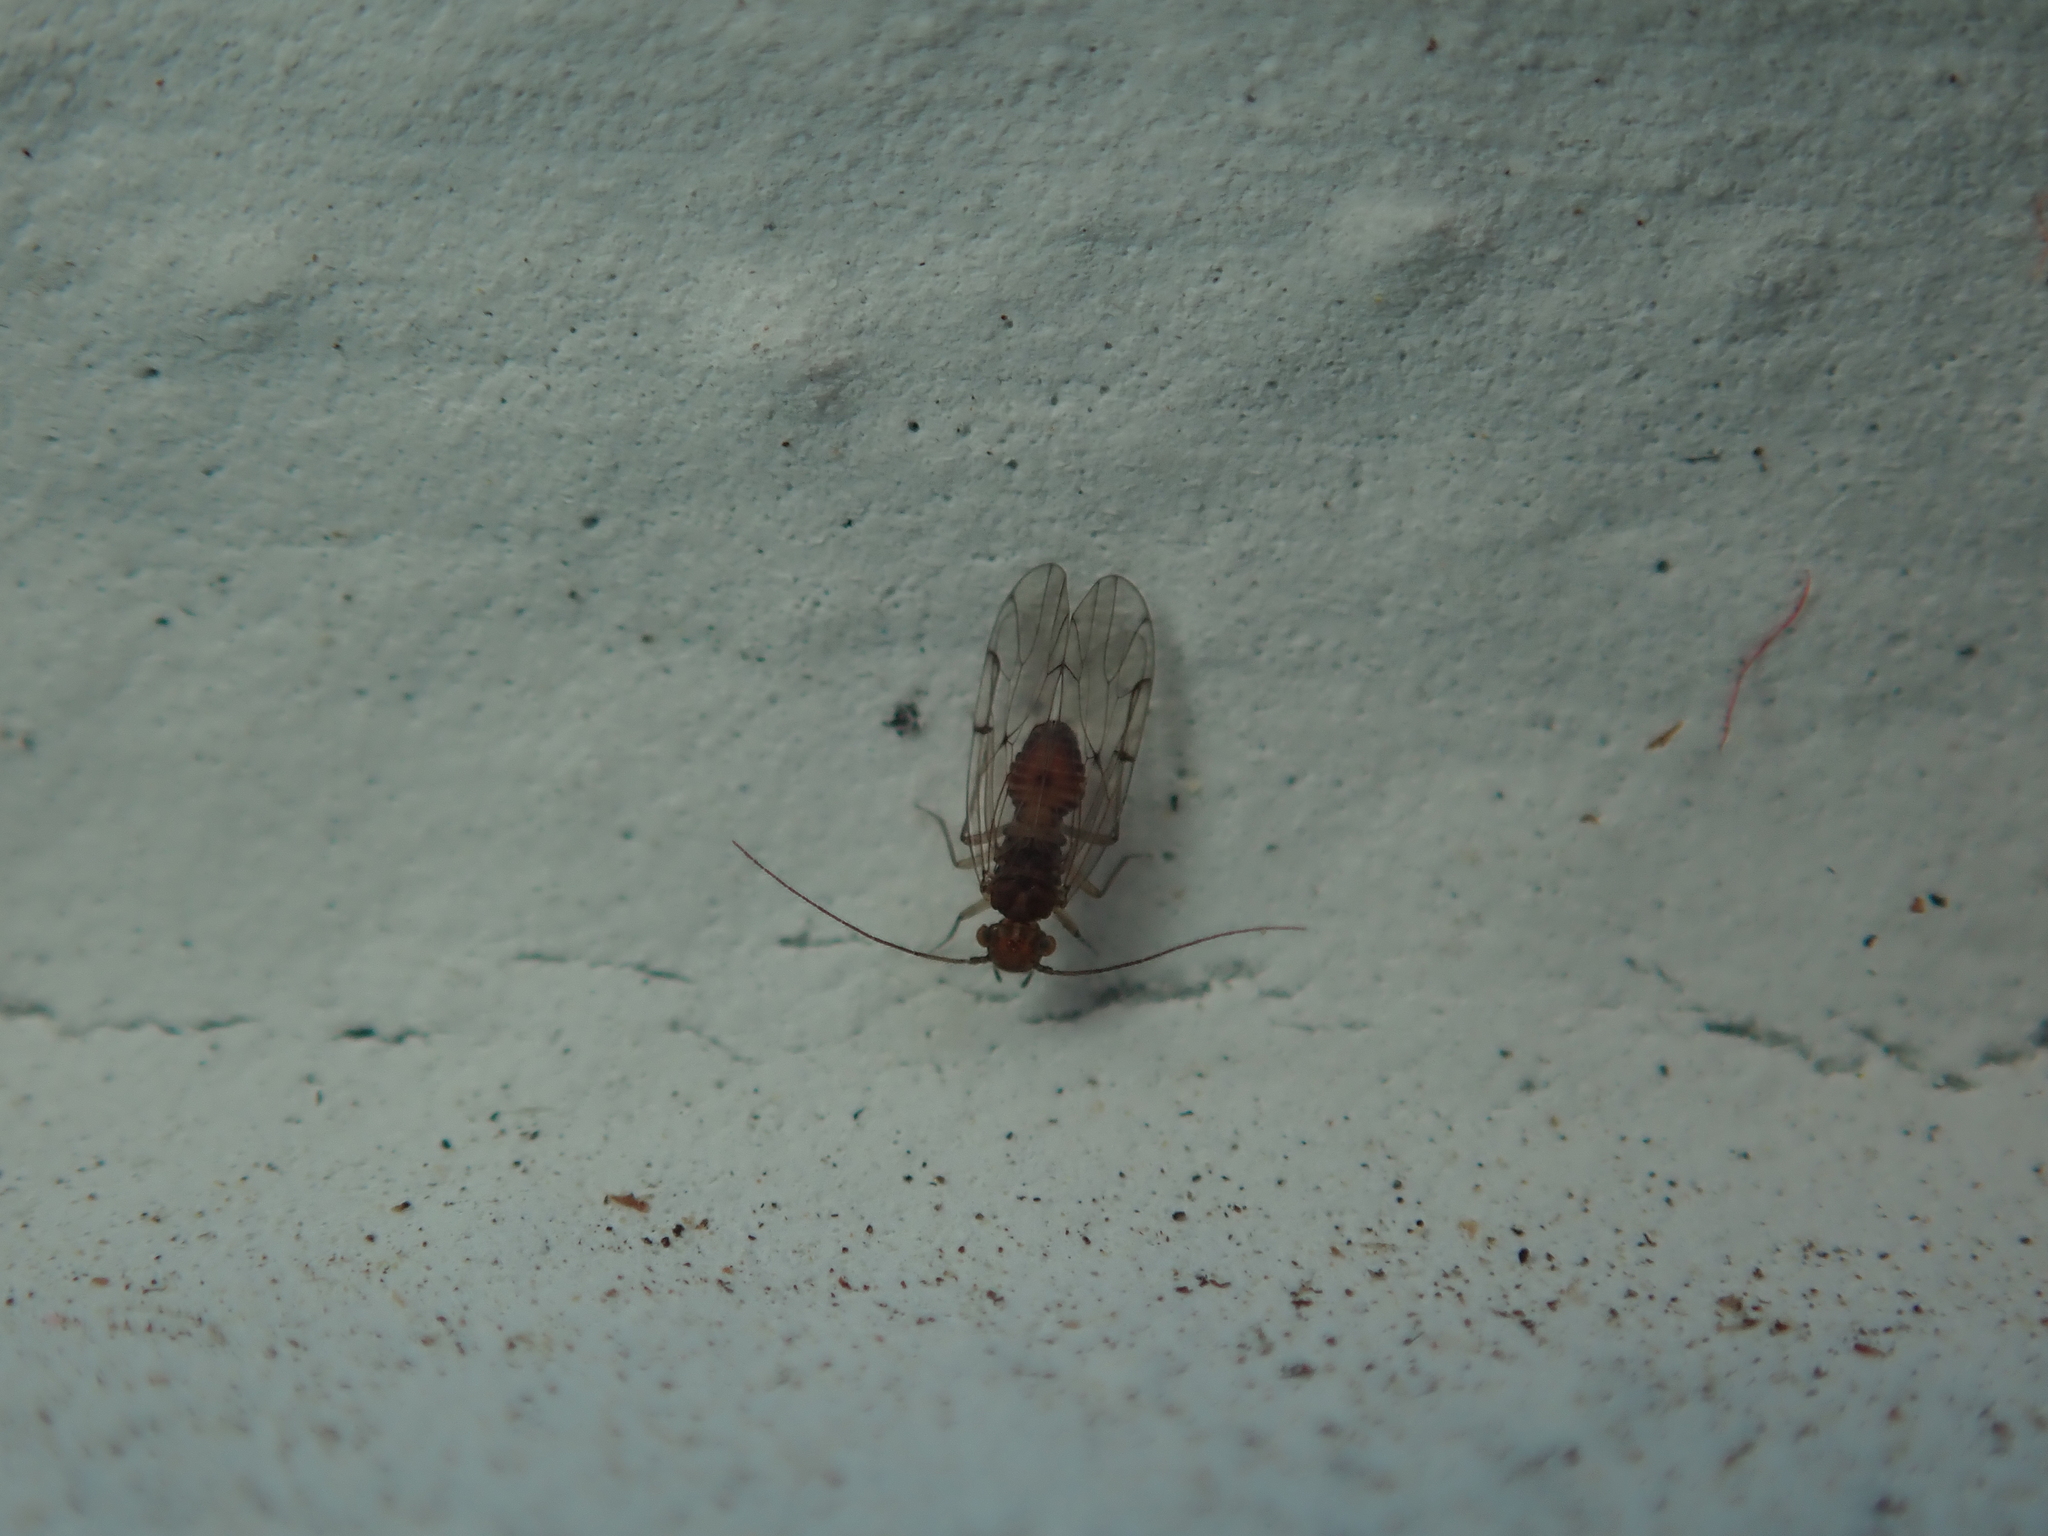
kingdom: Animalia
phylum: Arthropoda
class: Insecta
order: Psocodea
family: Ectopsocidae
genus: Ectopsocus
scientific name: Ectopsocus briggsi
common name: Ectopsocid
